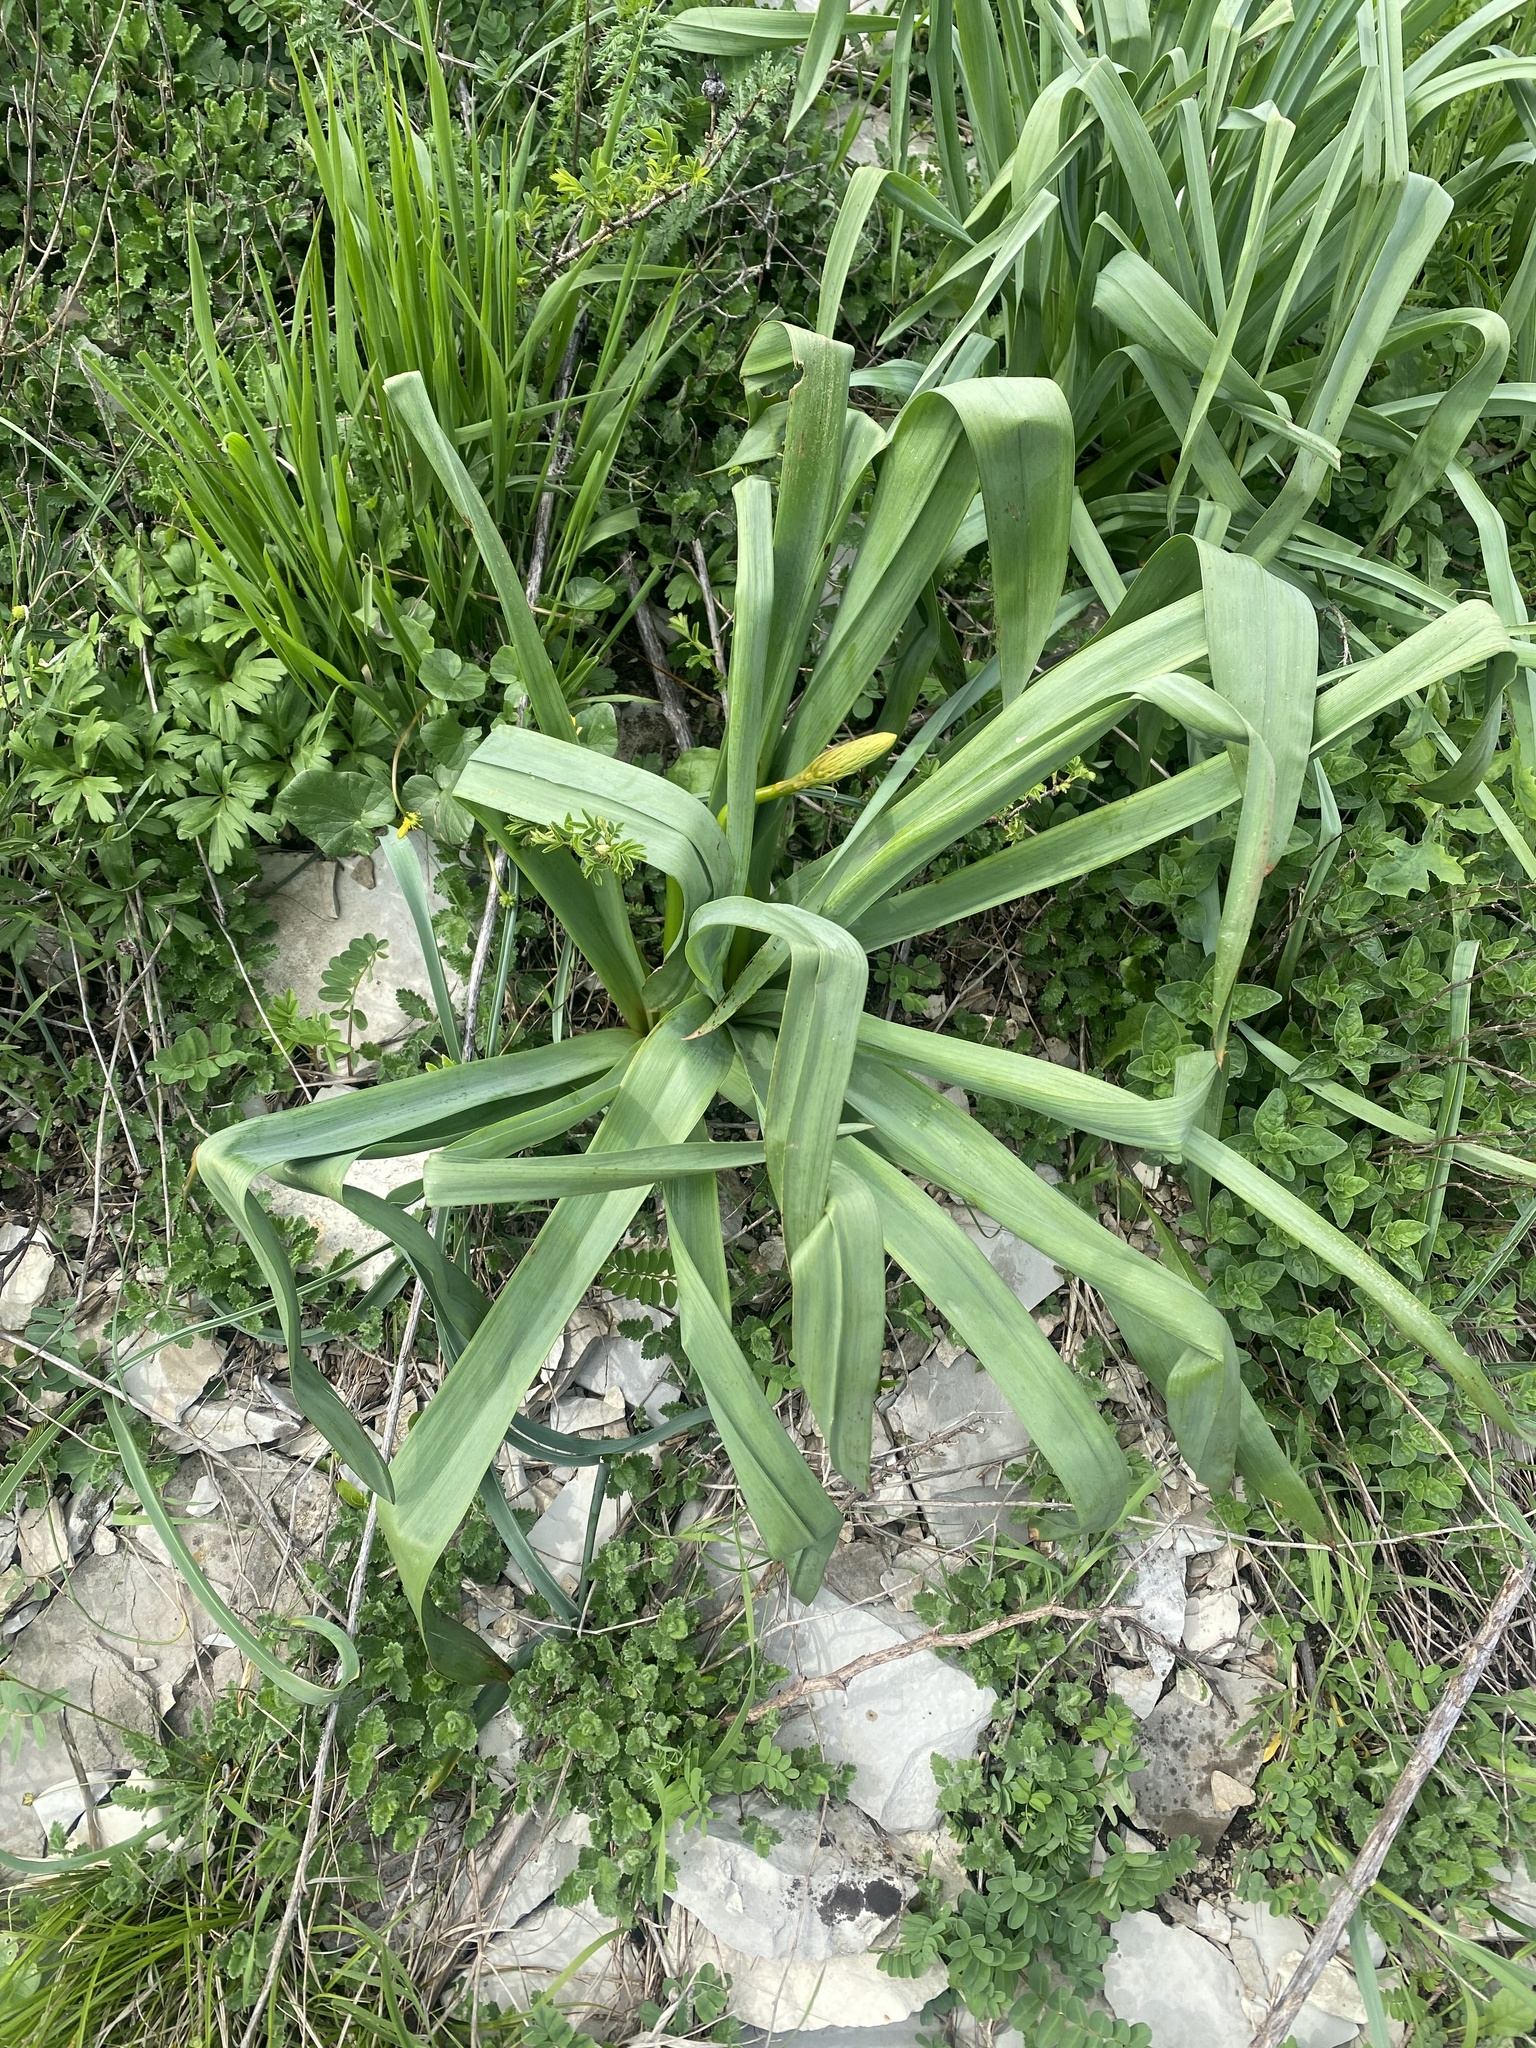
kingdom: Plantae
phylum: Tracheophyta
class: Liliopsida
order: Asparagales
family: Asphodelaceae
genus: Eremurus
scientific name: Eremurus spectabilis
